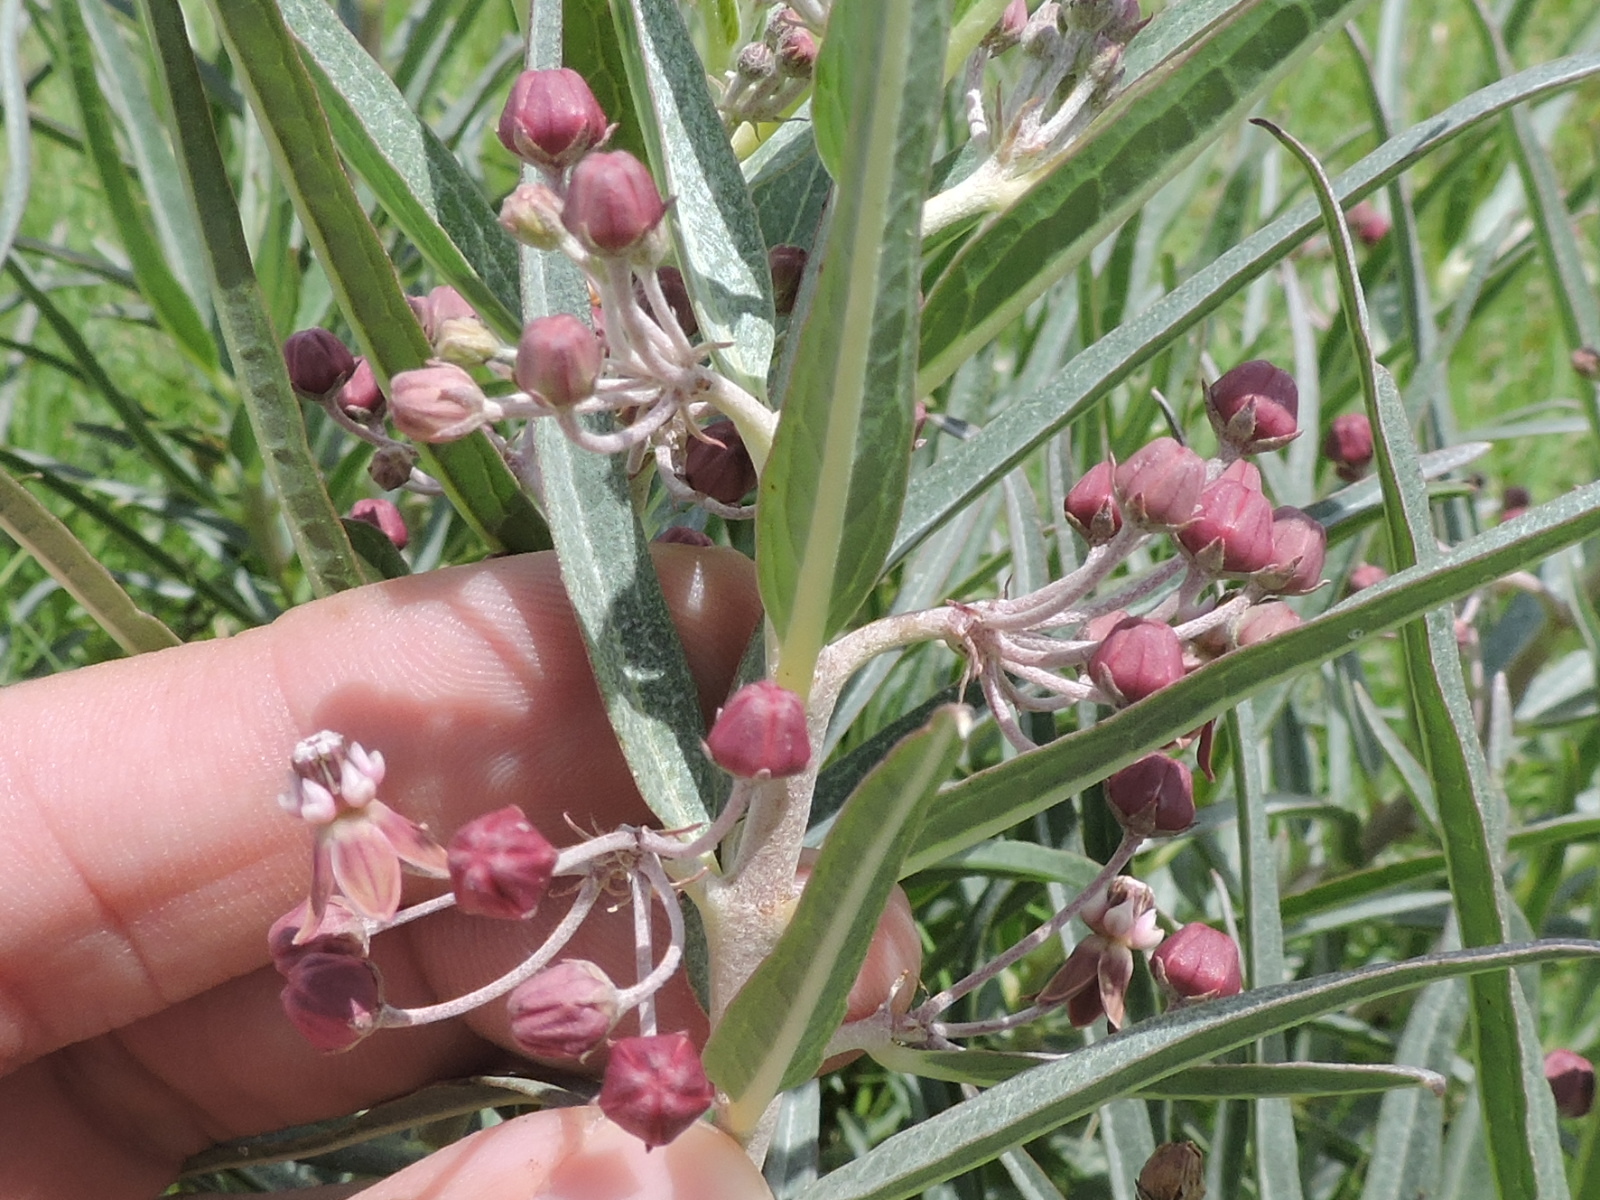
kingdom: Plantae
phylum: Tracheophyta
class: Magnoliopsida
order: Gentianales
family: Apocynaceae
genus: Asclepias
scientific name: Asclepias brachystephana
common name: Shortcrown milkweed
